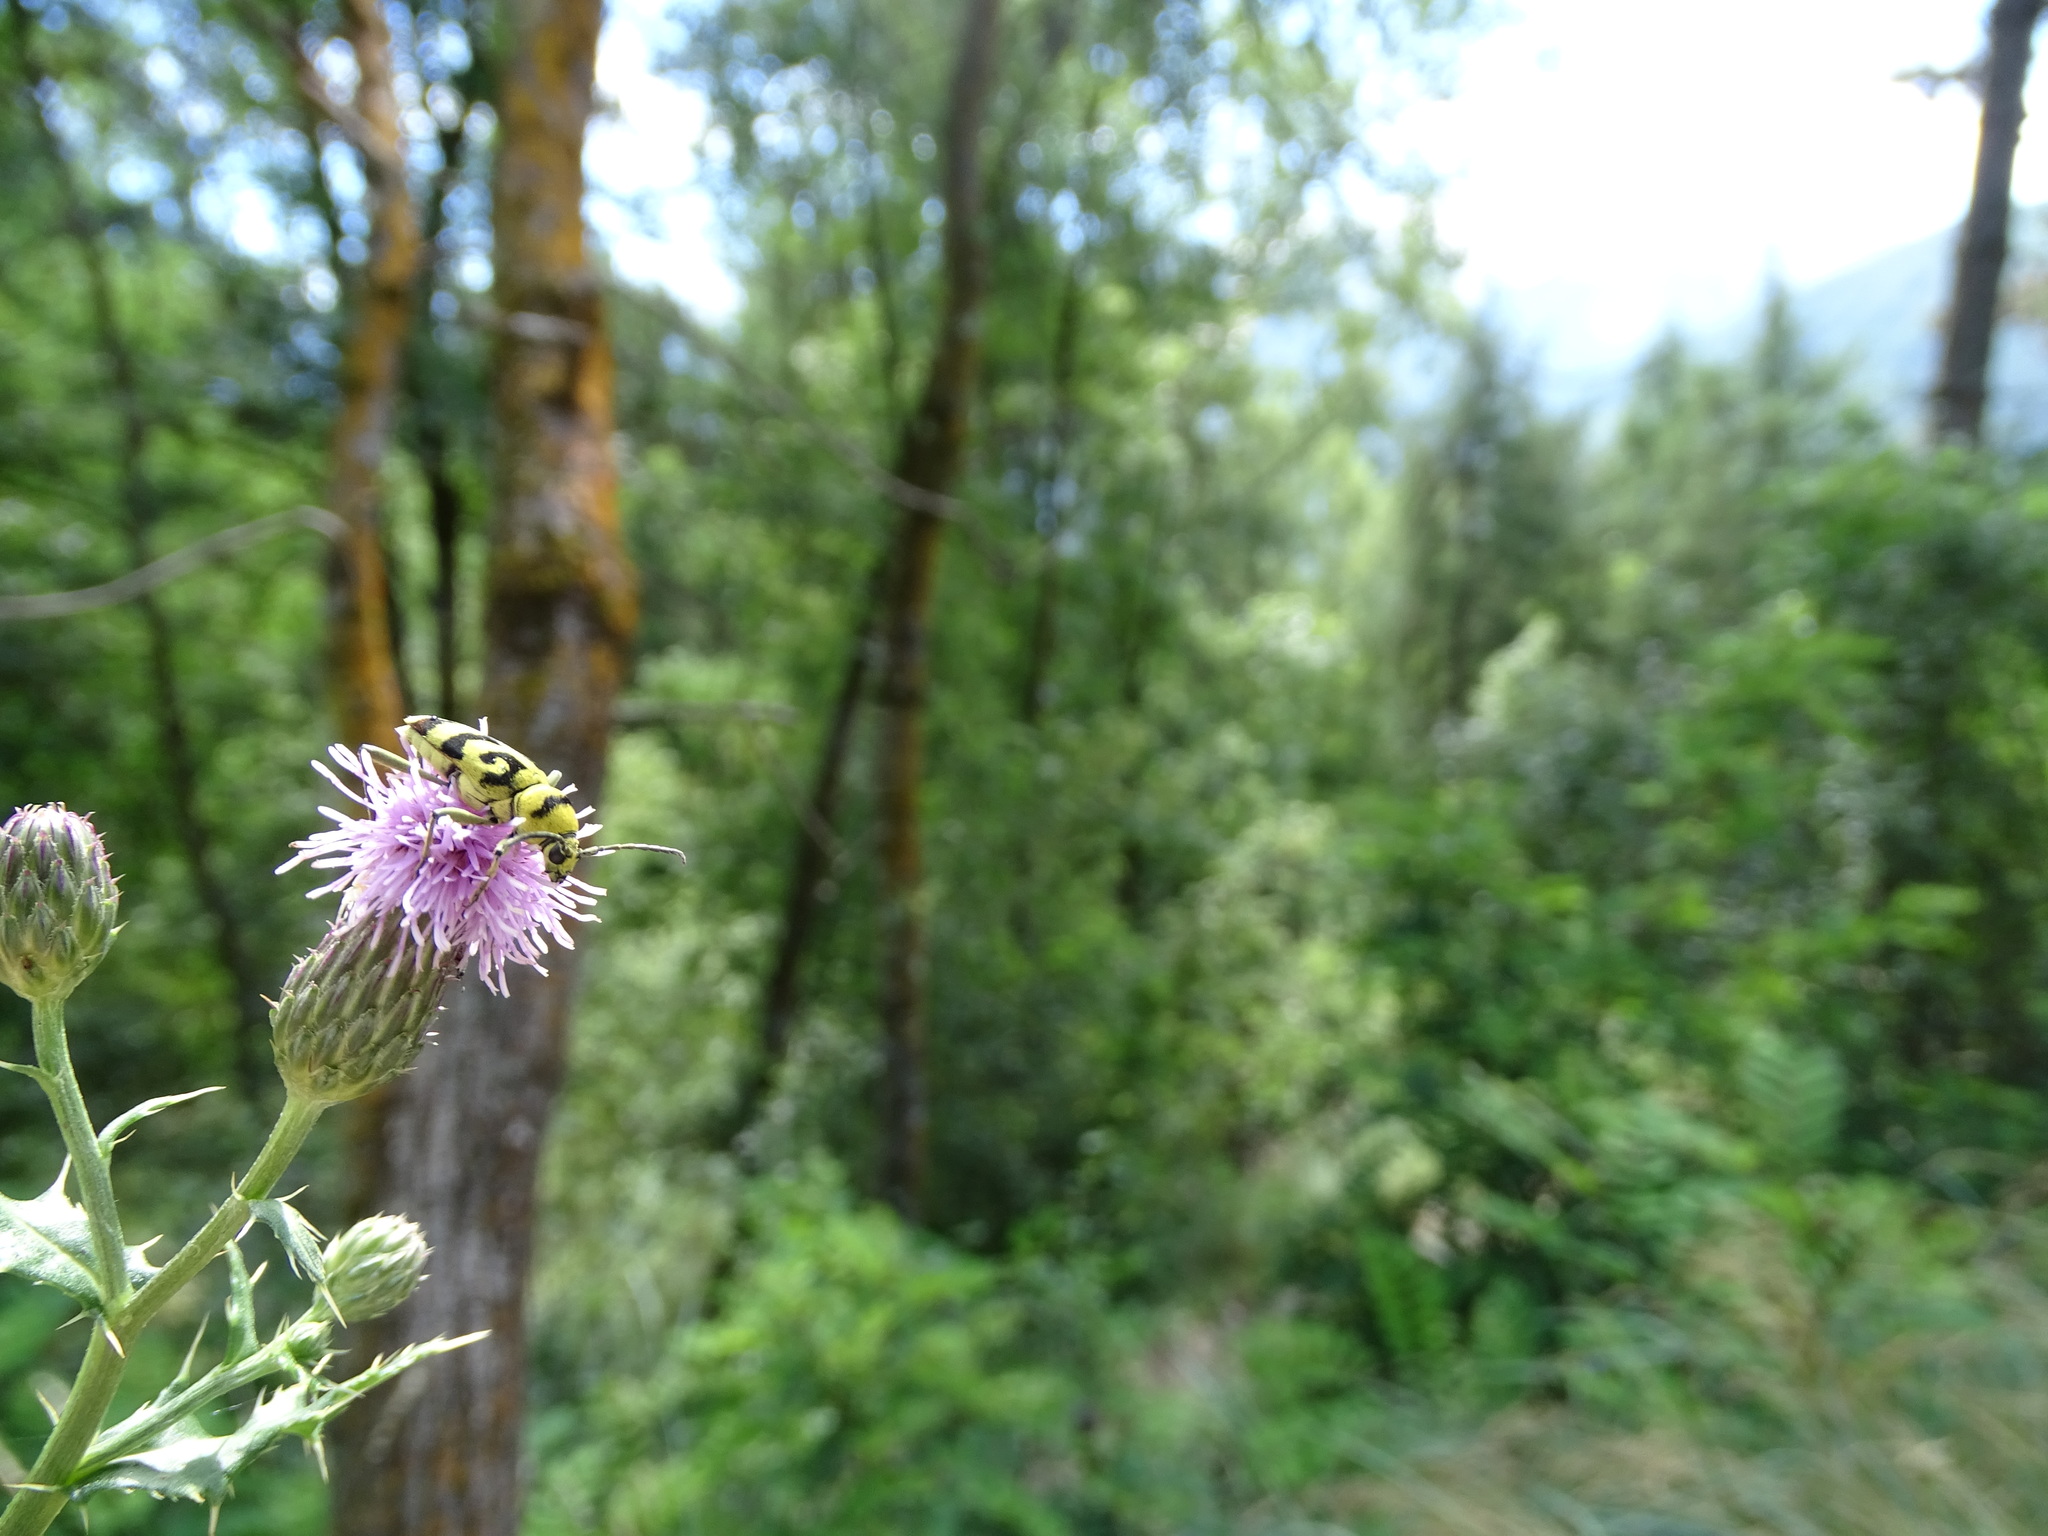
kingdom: Animalia
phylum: Arthropoda
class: Insecta
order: Coleoptera
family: Cerambycidae
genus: Chlorophorus
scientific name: Chlorophorus varius
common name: Grape wood borer
